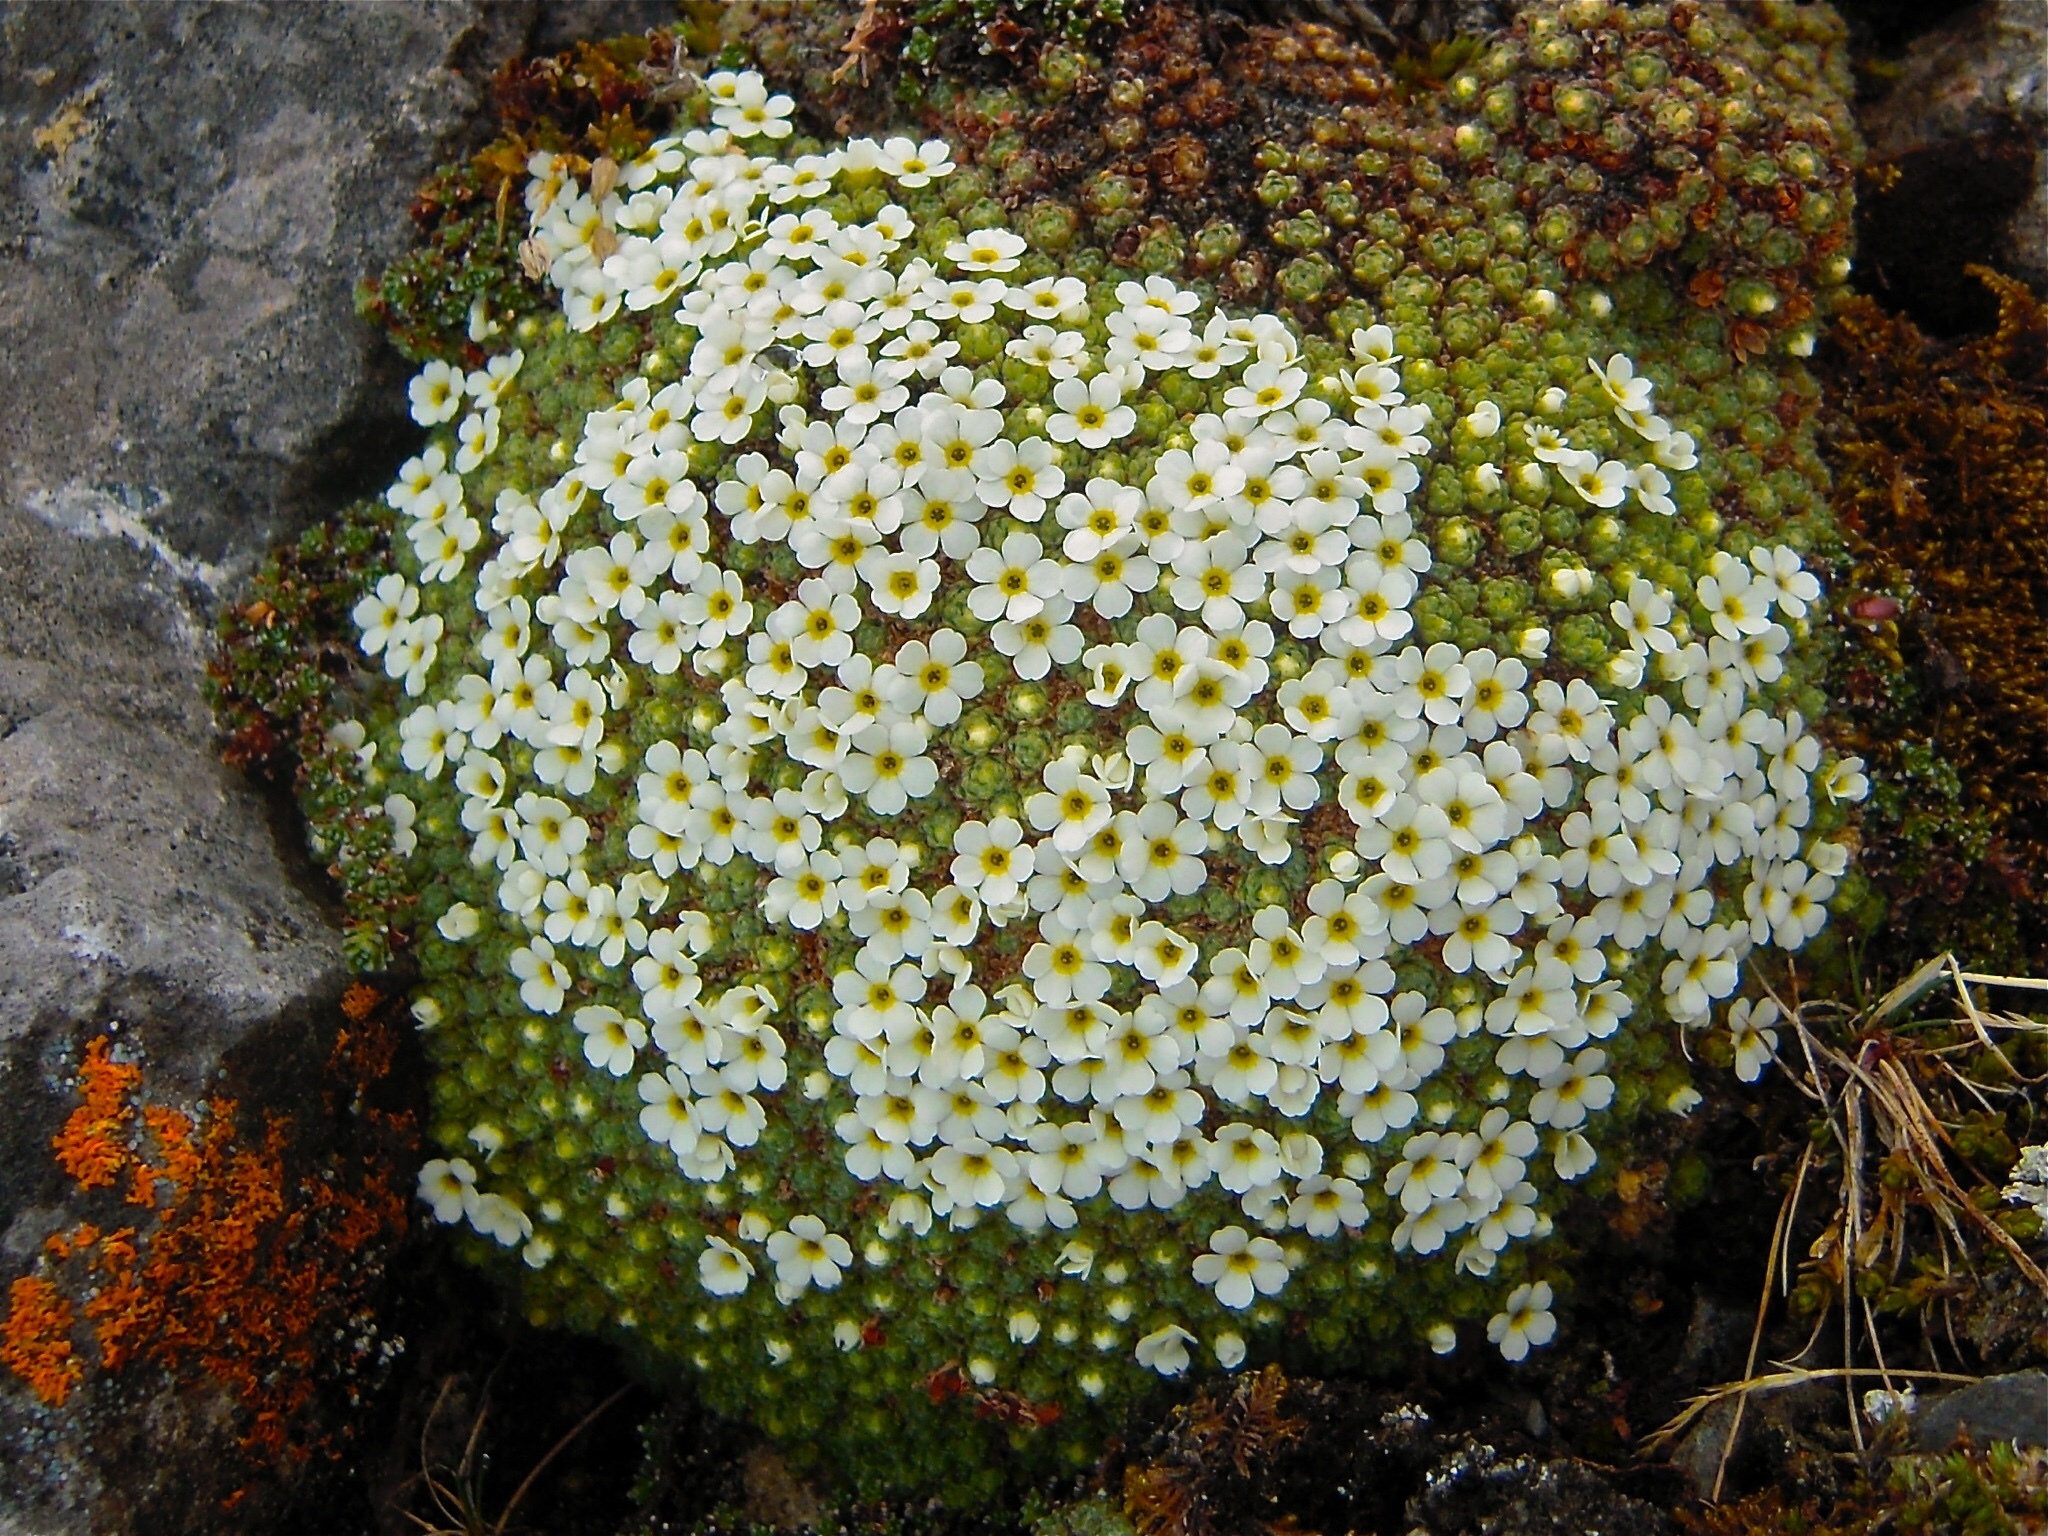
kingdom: Plantae
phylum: Tracheophyta
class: Magnoliopsida
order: Ericales
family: Primulaceae
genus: Androsace
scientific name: Androsace helvetica
